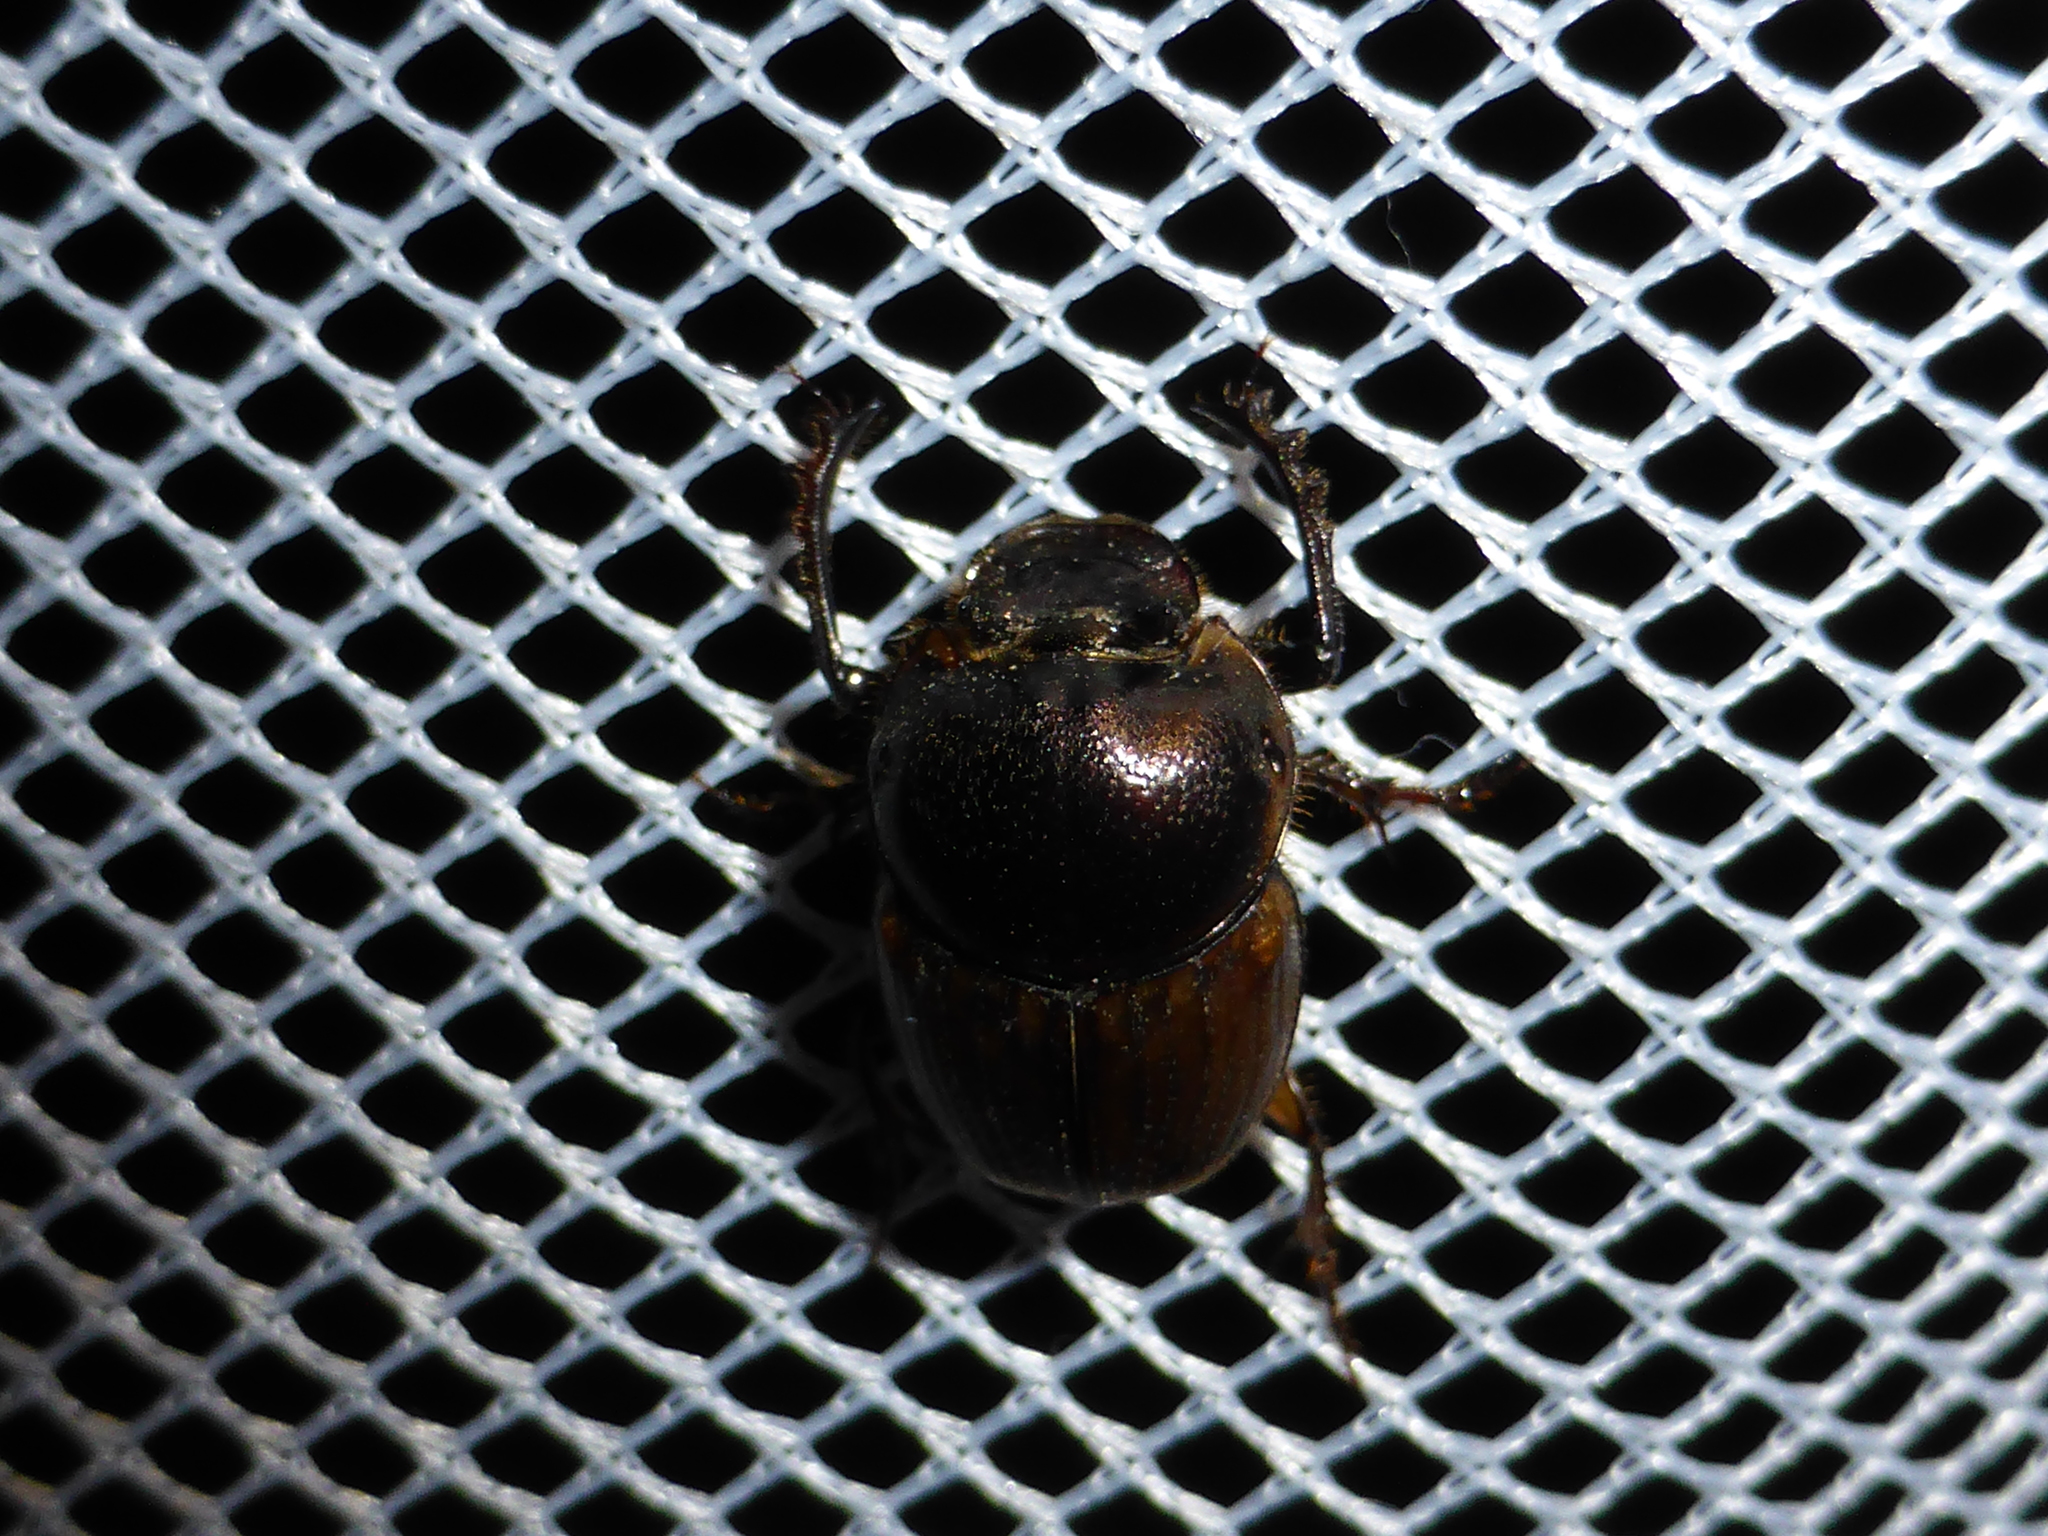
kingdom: Animalia
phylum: Arthropoda
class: Insecta
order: Coleoptera
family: Scarabaeidae
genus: Digitonthophagus
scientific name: Digitonthophagus gazella
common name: Brown dung beetle
